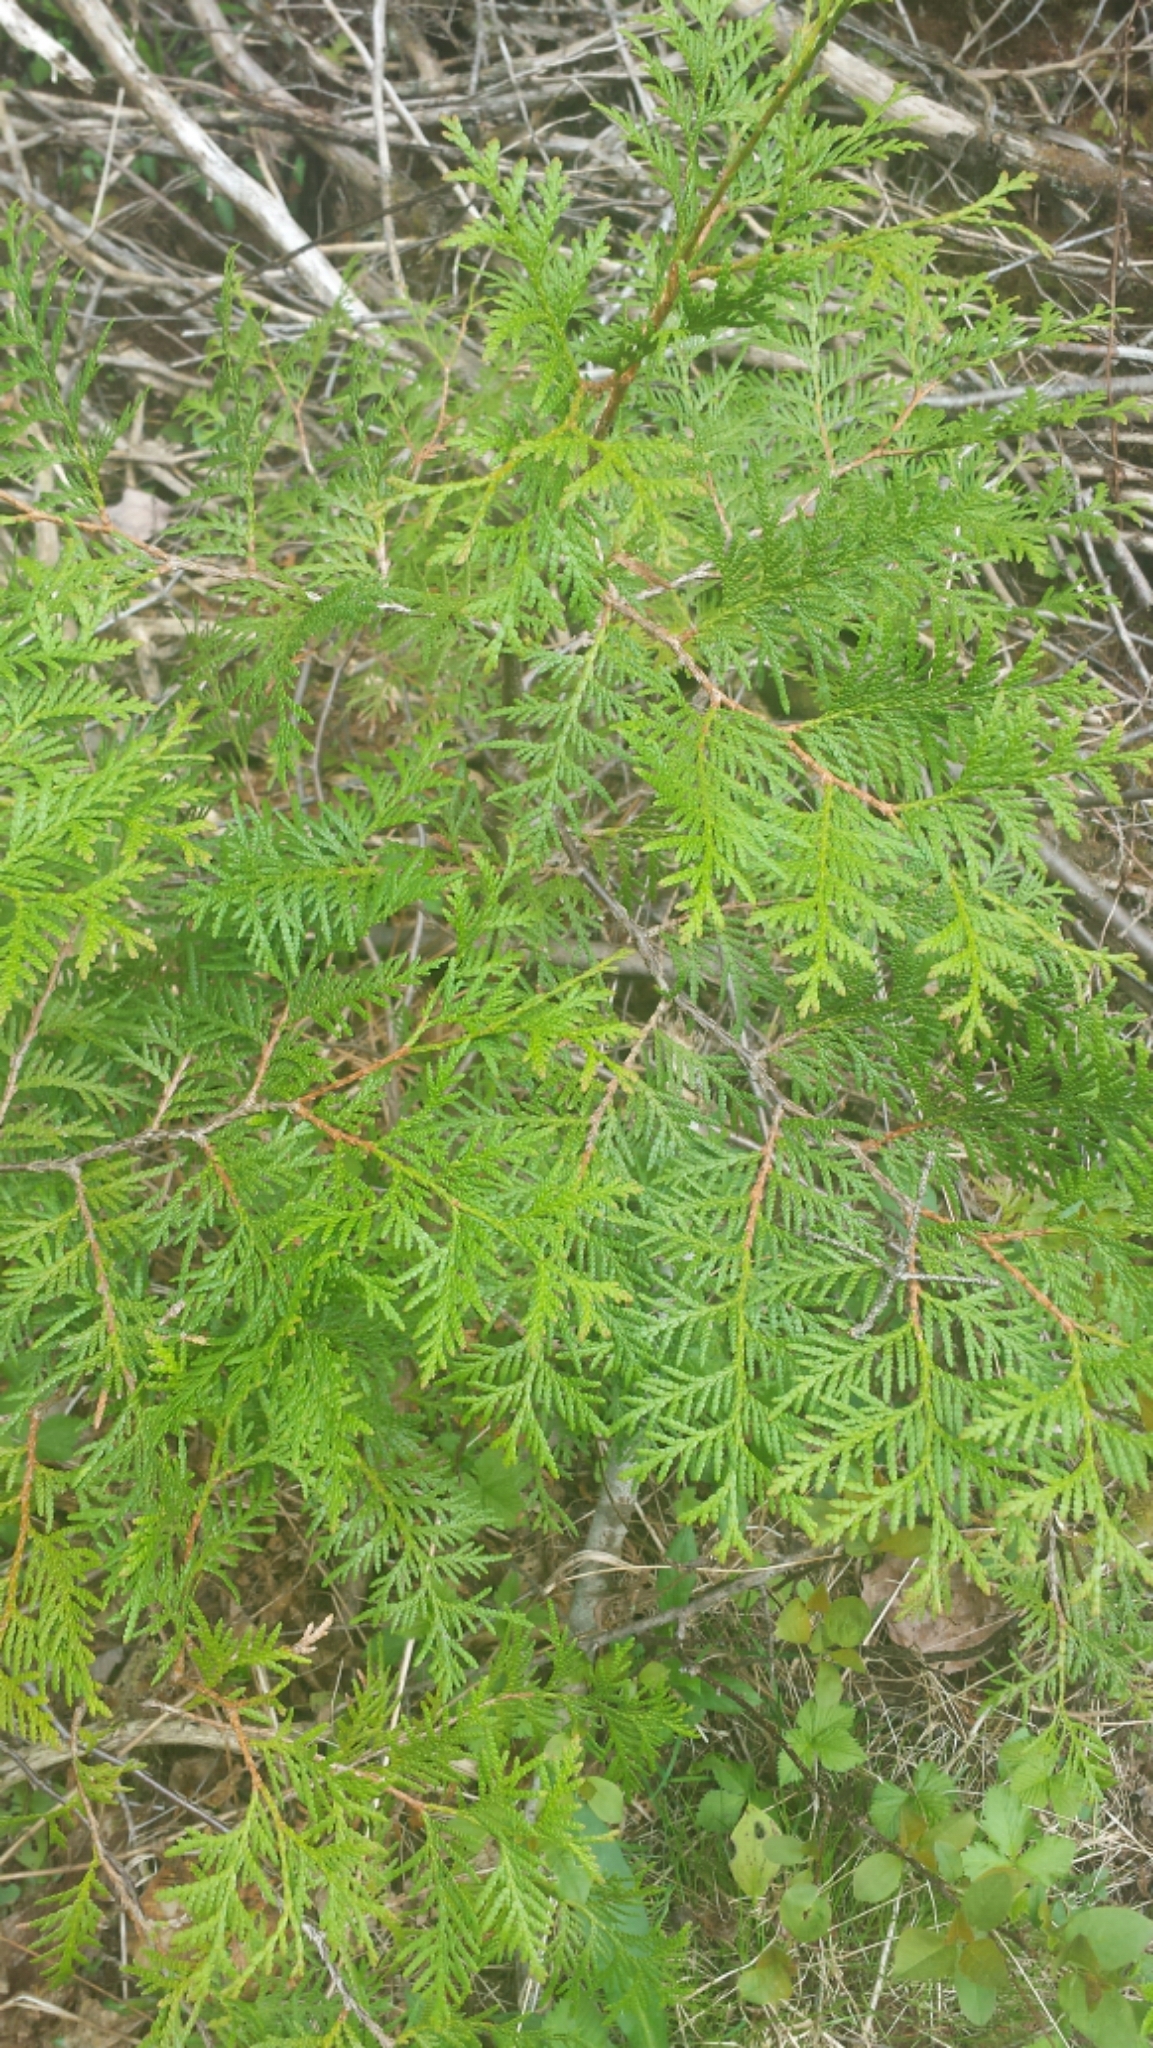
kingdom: Plantae
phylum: Tracheophyta
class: Pinopsida
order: Pinales
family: Cupressaceae
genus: Thuja
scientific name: Thuja occidentalis
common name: Northern white-cedar
